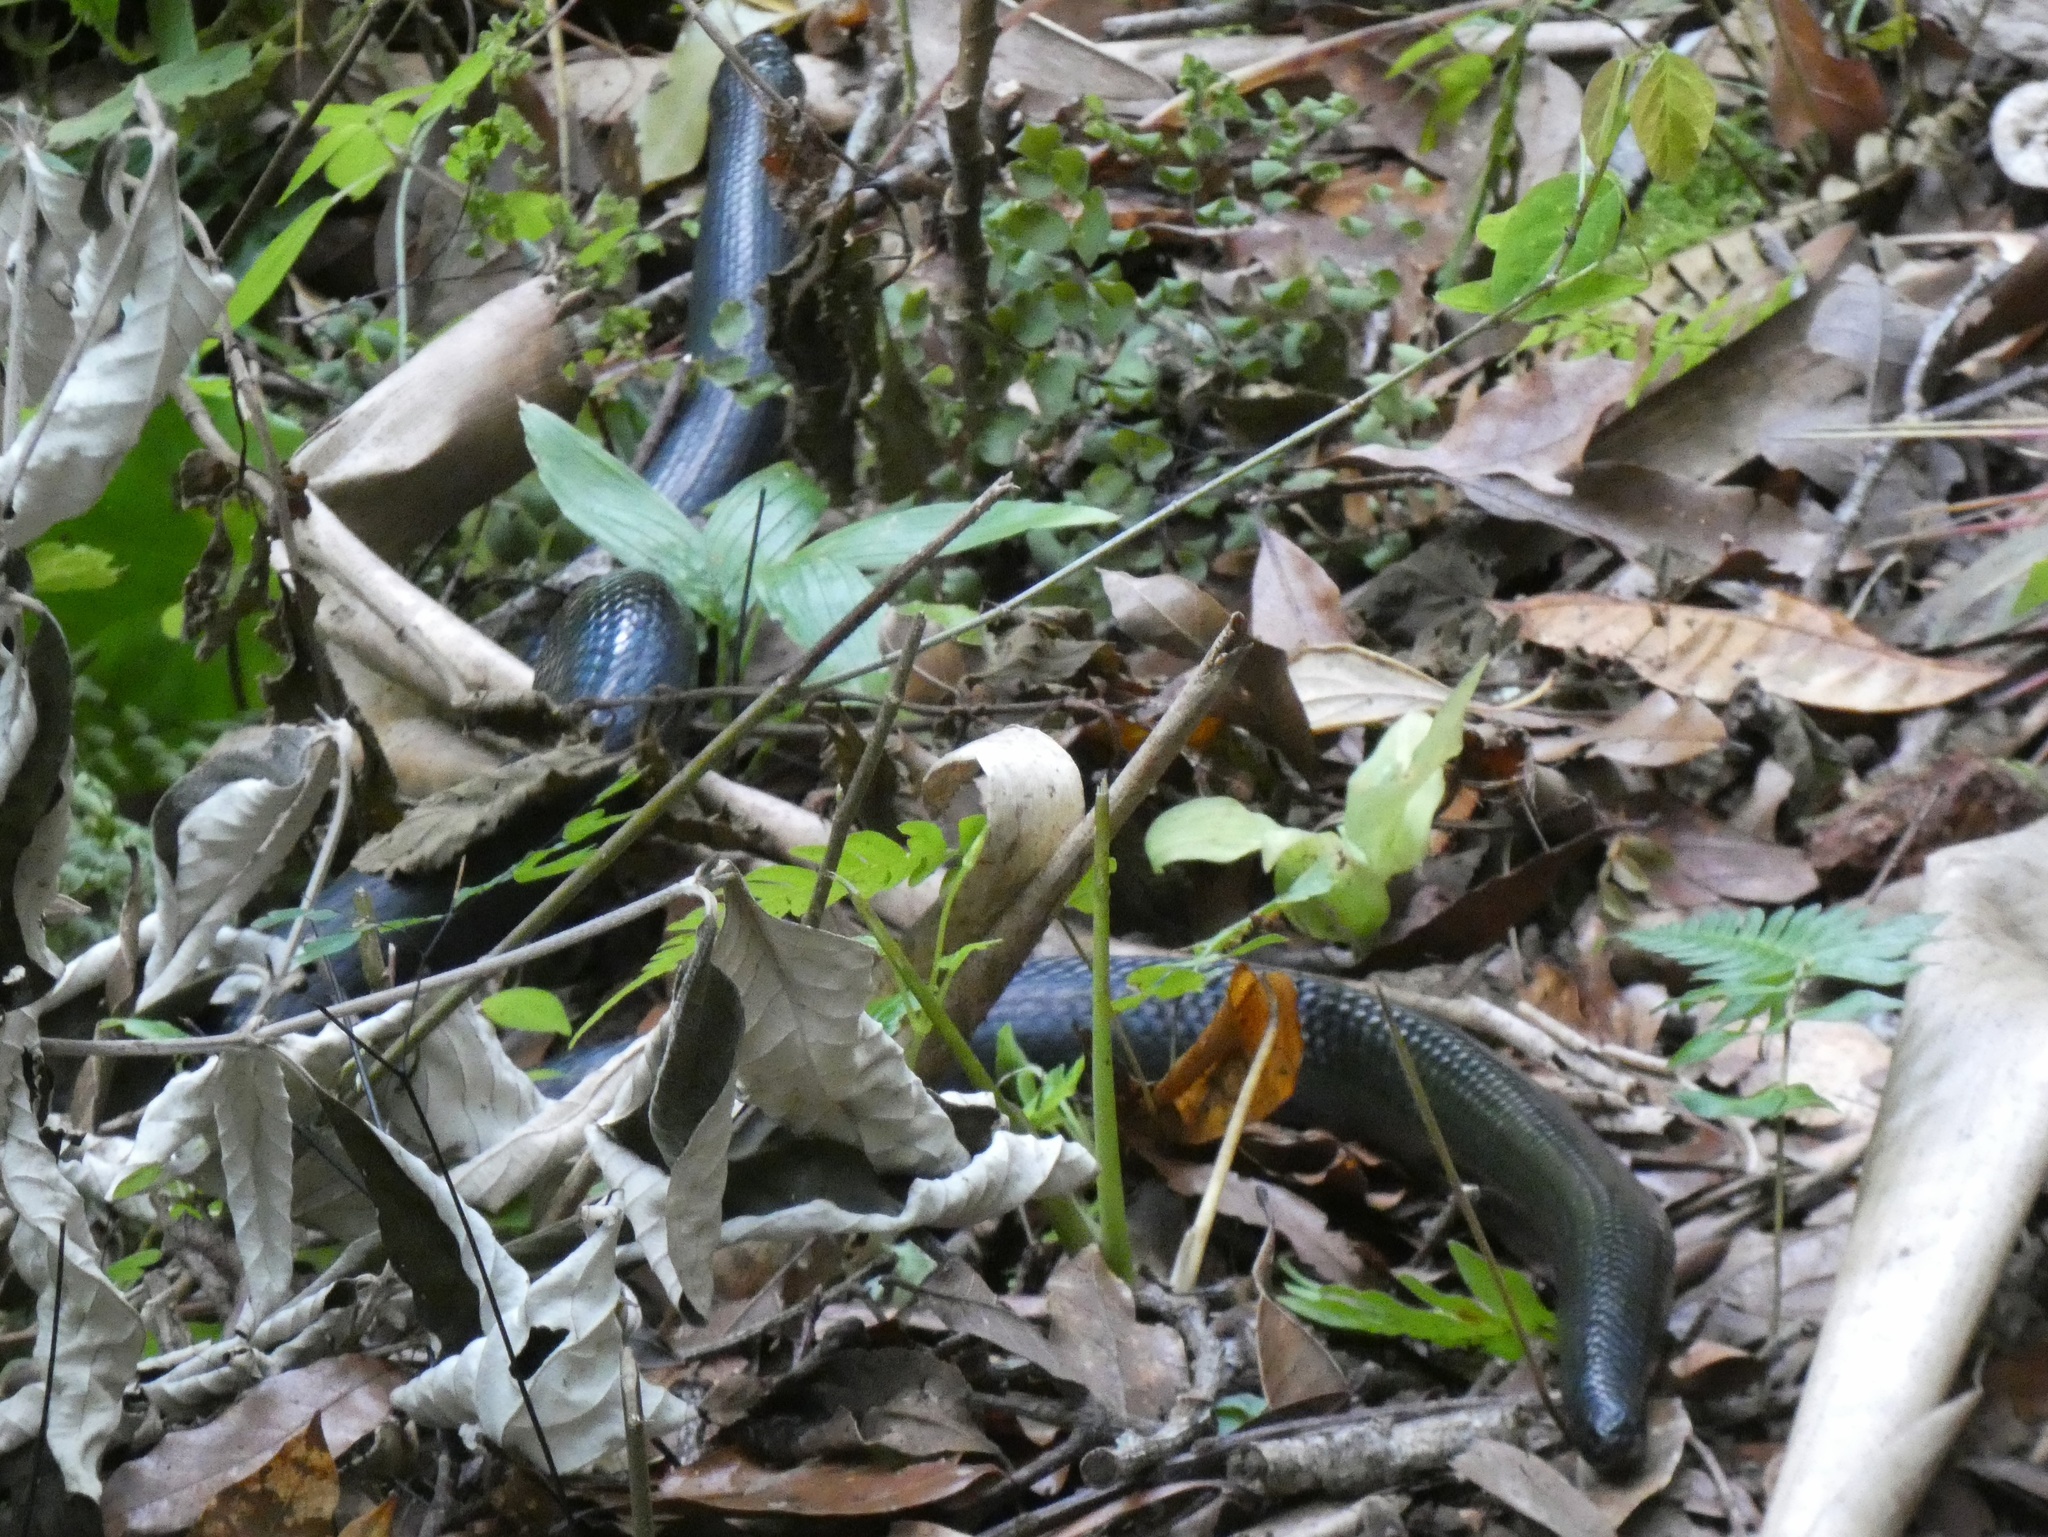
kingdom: Animalia
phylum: Chordata
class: Squamata
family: Colubridae
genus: Clelia
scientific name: Clelia clelia
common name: Mussurana
